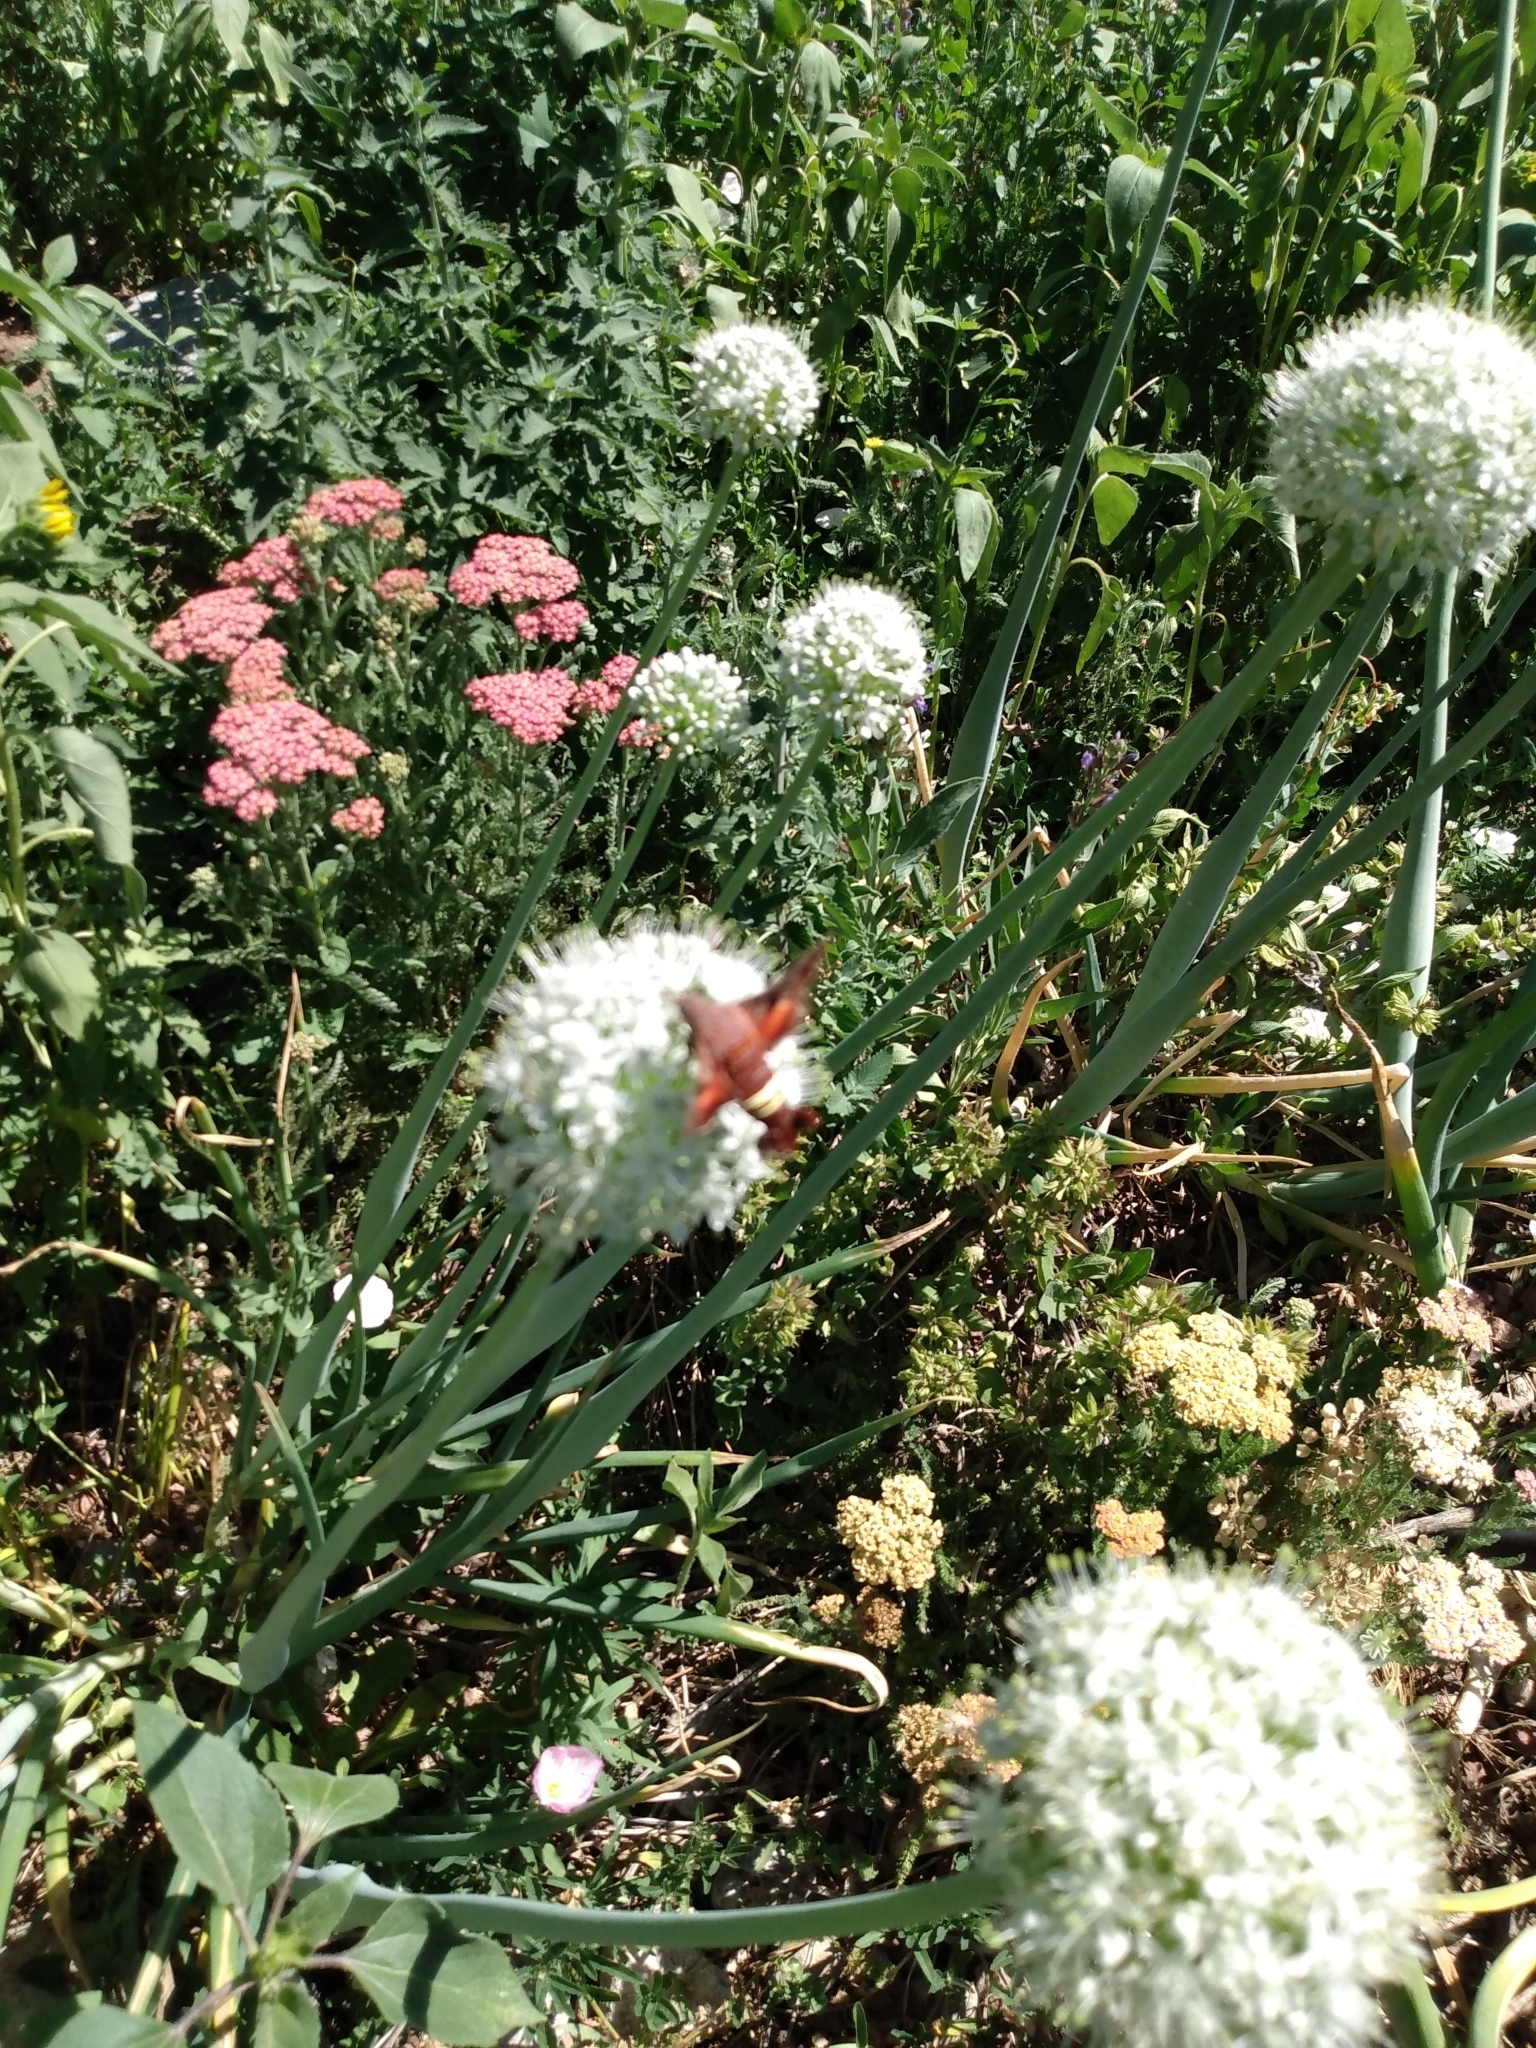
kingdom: Animalia
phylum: Arthropoda
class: Insecta
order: Lepidoptera
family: Sphingidae
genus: Amphion
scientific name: Amphion floridensis
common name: Nessus sphinx
